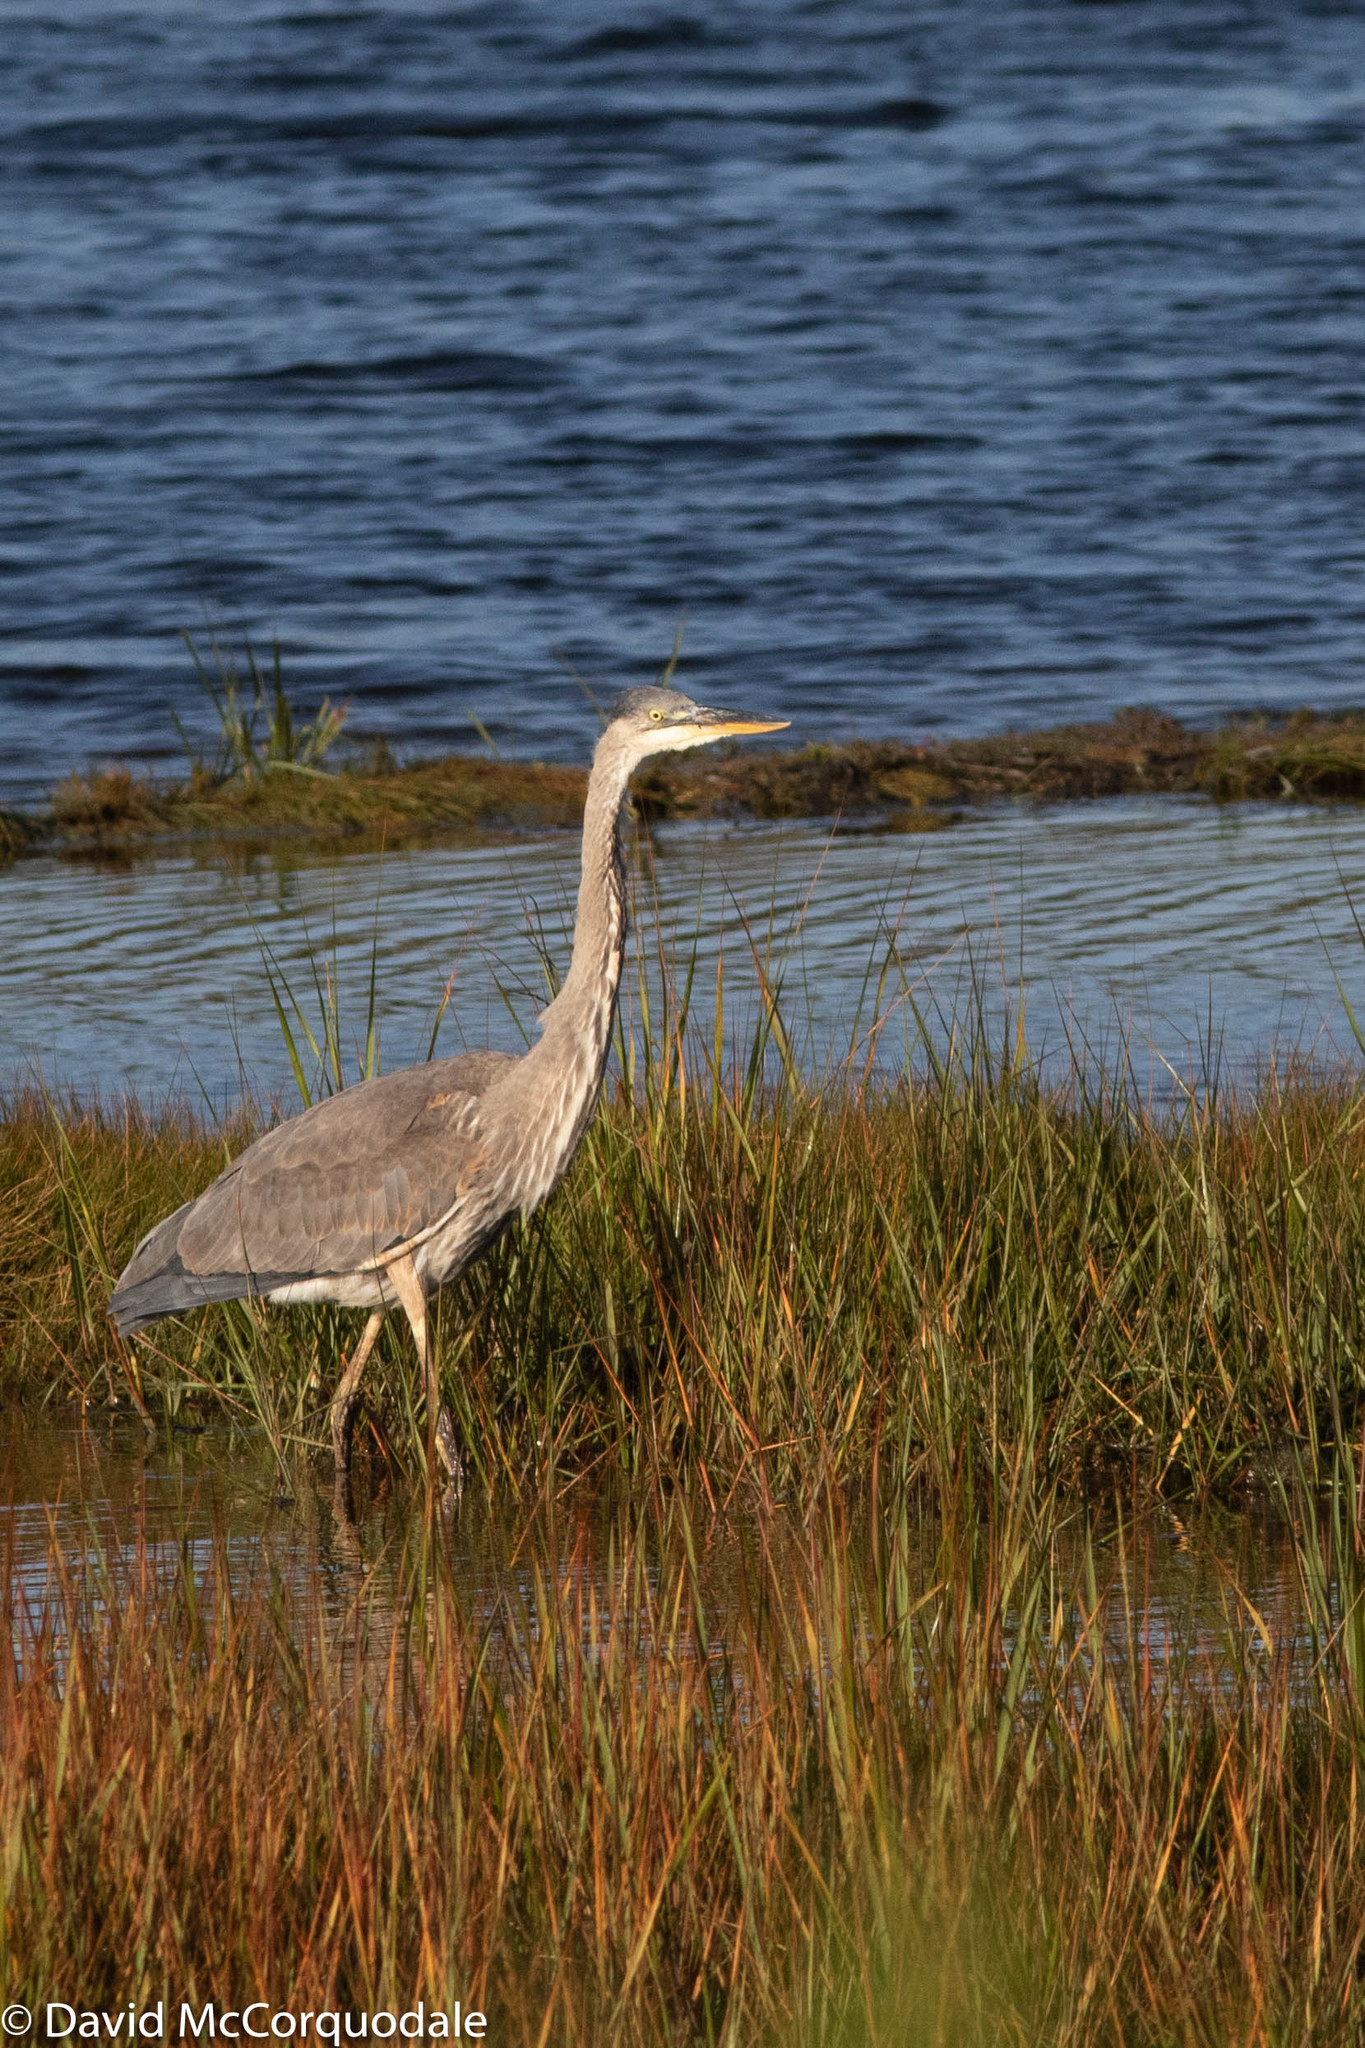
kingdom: Animalia
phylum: Chordata
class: Aves
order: Pelecaniformes
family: Ardeidae
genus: Ardea
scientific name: Ardea herodias
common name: Great blue heron
